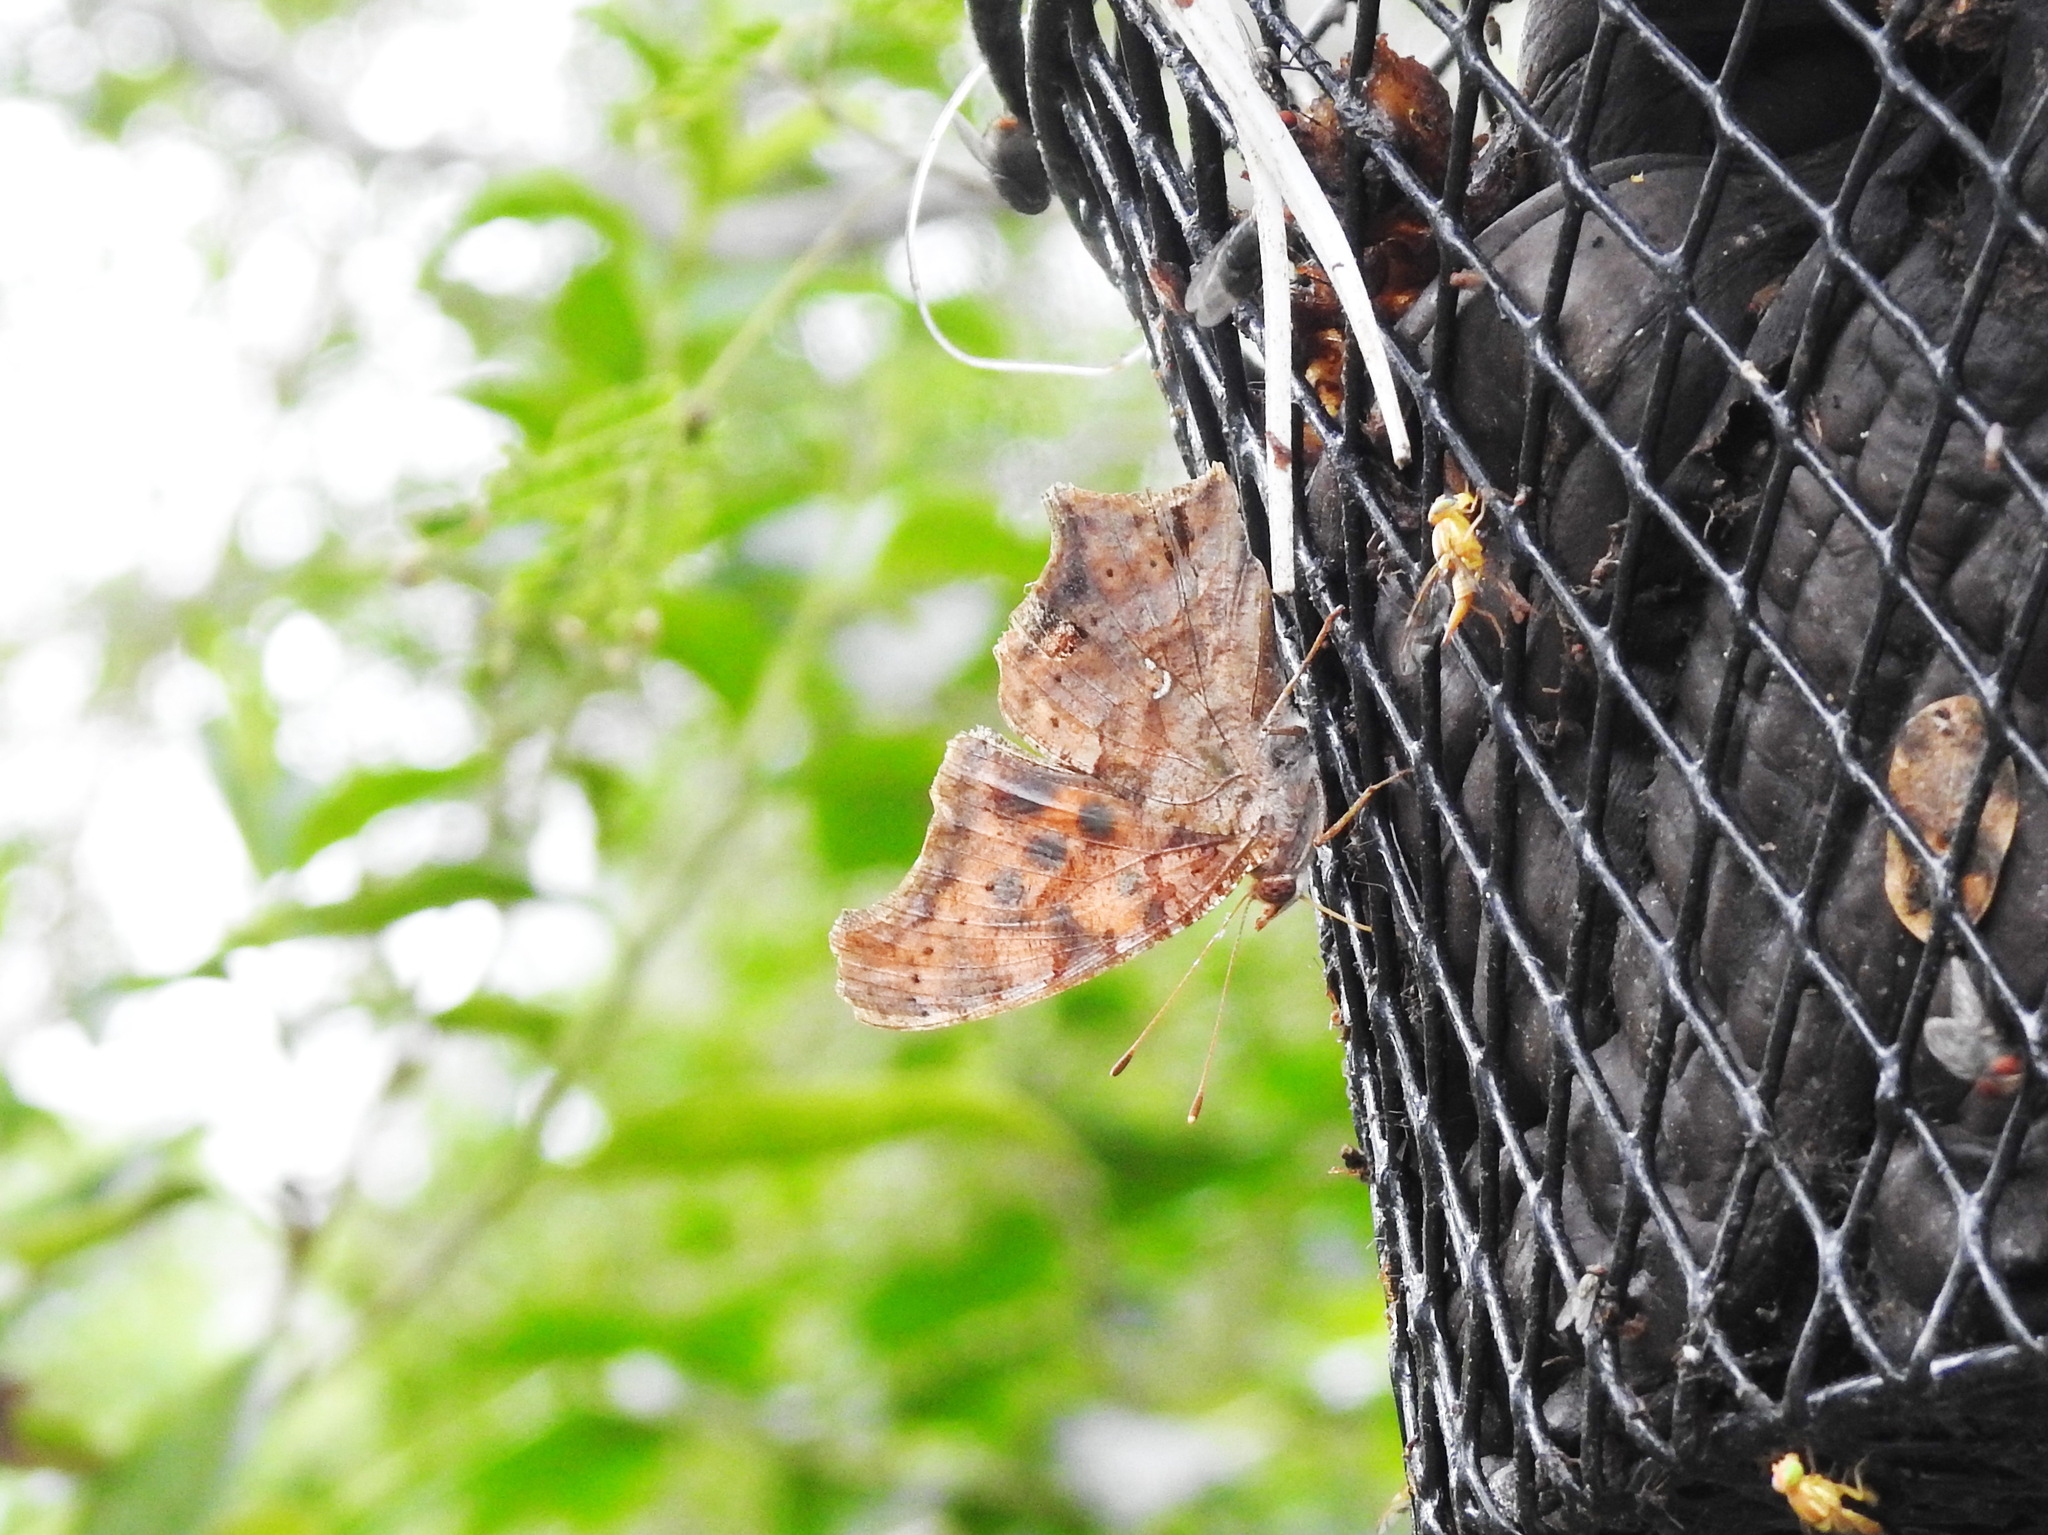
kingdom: Animalia
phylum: Arthropoda
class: Insecta
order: Lepidoptera
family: Nymphalidae
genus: Polygonia
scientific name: Polygonia interrogationis
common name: Question mark
